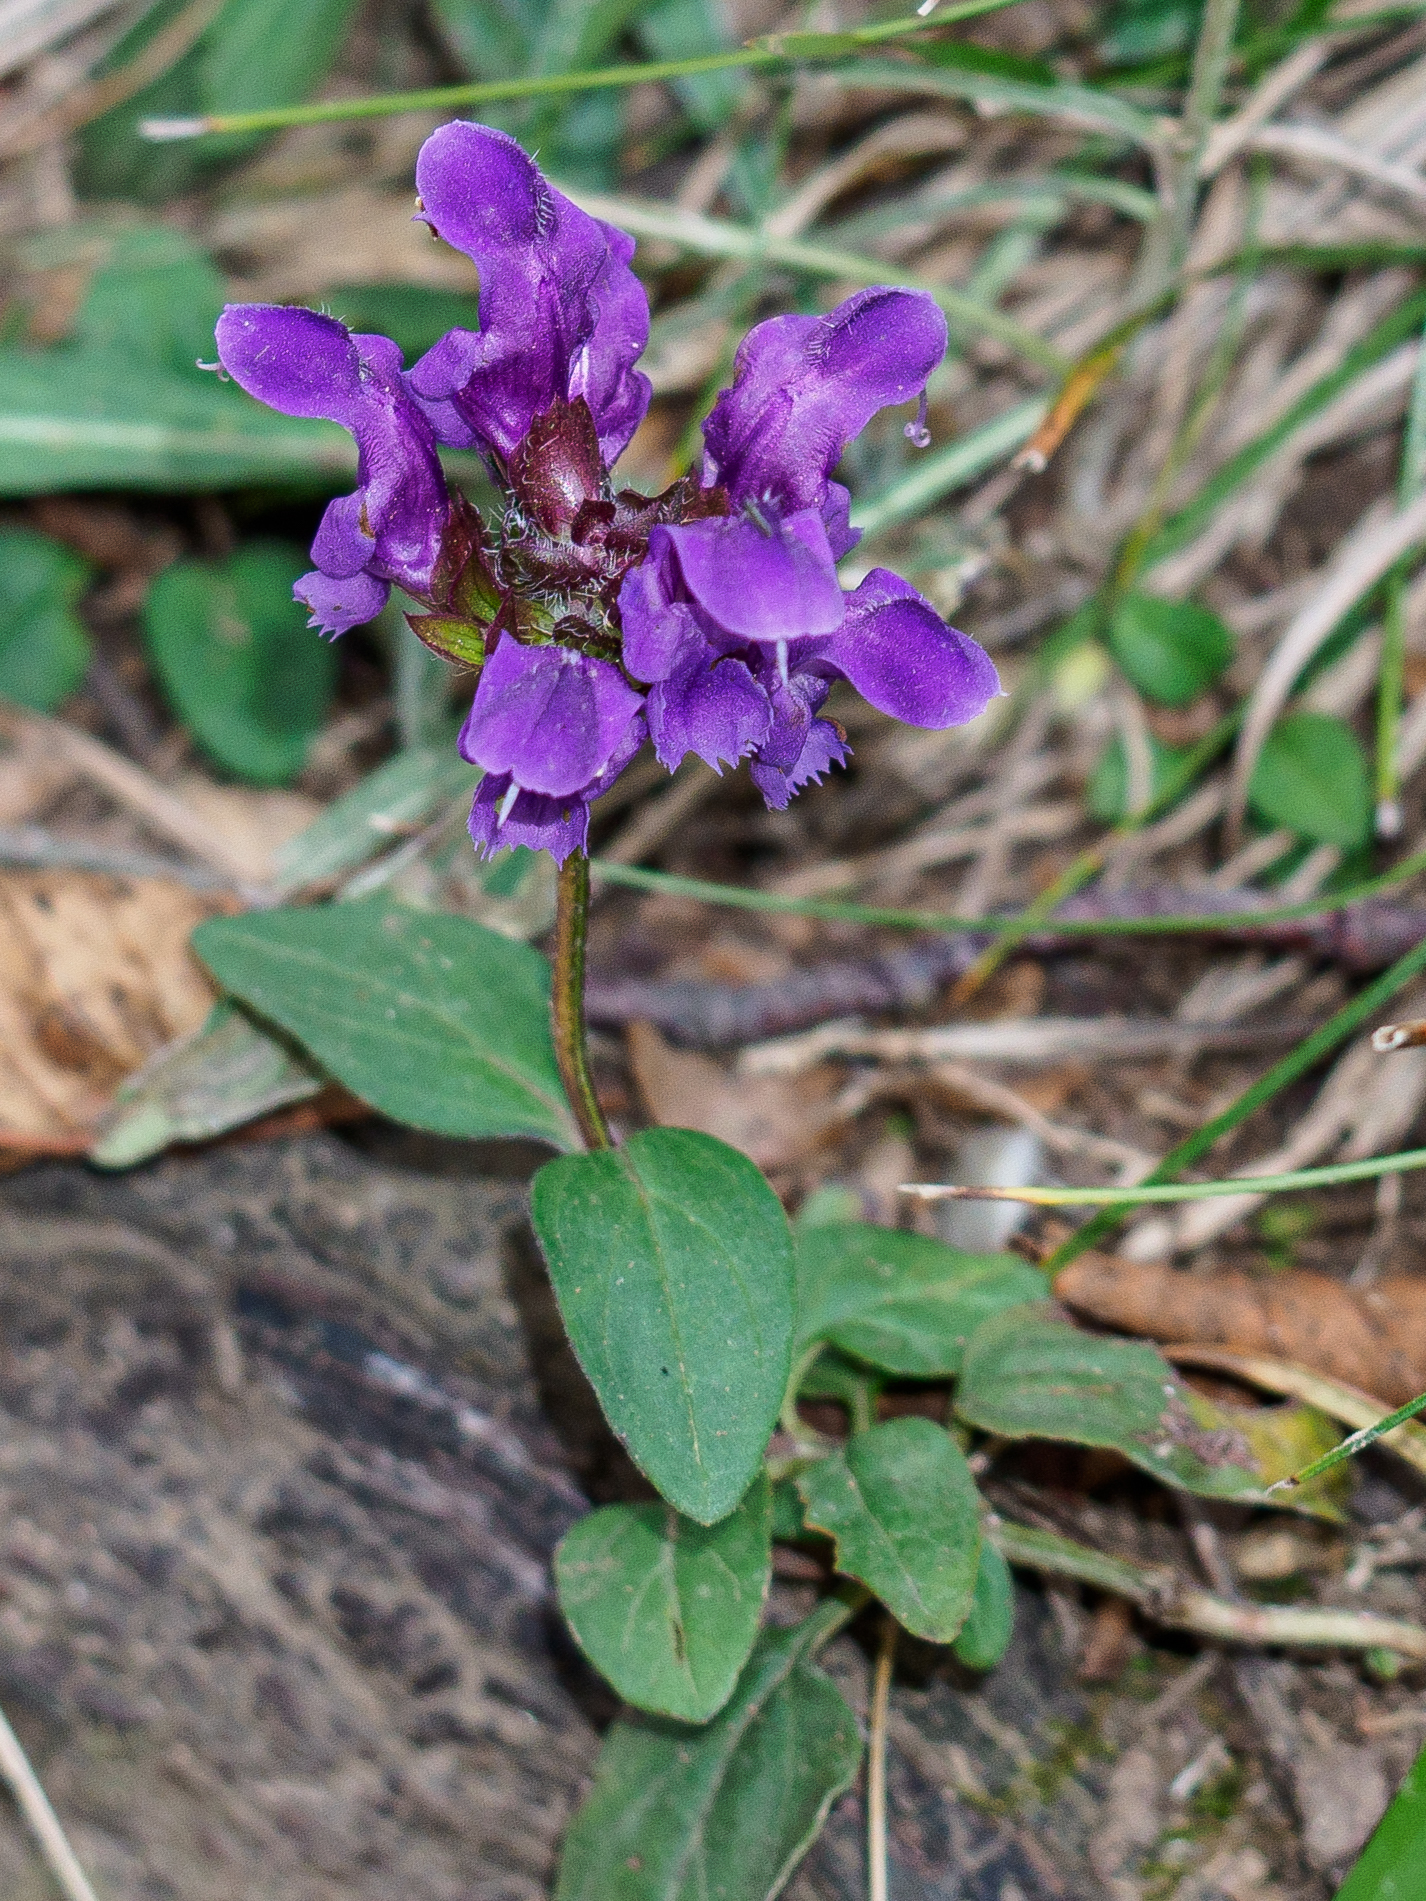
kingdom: Plantae
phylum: Tracheophyta
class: Magnoliopsida
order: Lamiales
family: Lamiaceae
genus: Prunella
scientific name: Prunella grandiflora
